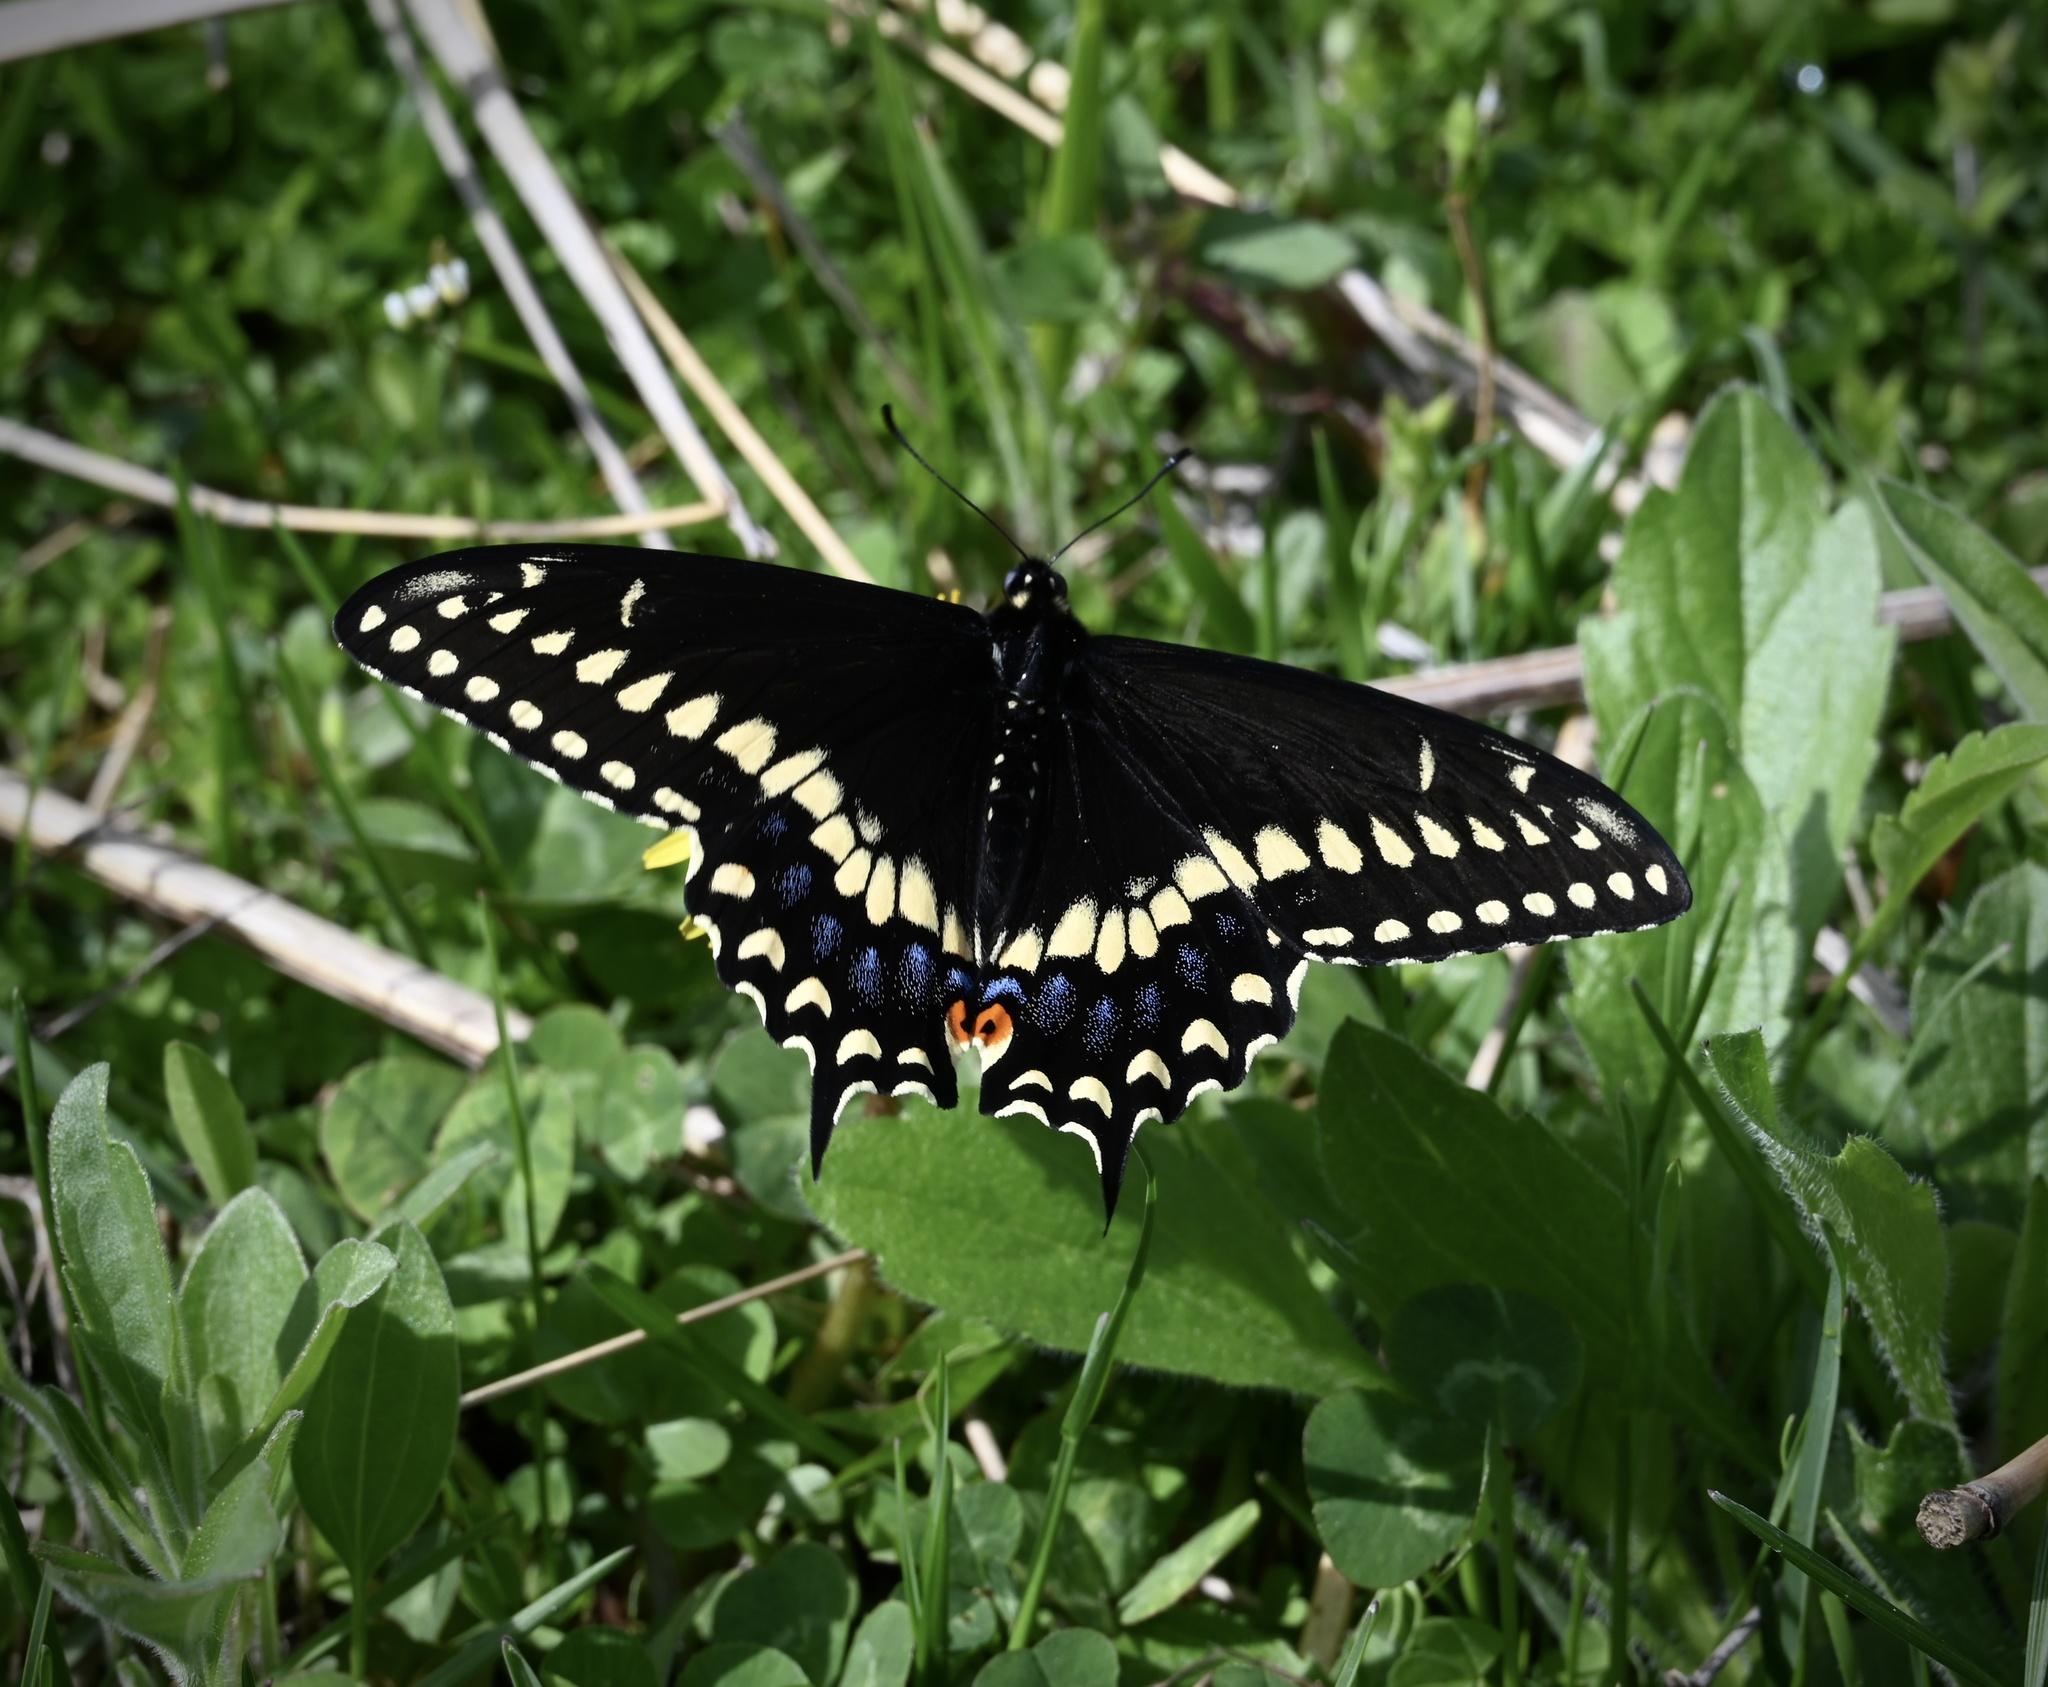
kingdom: Animalia
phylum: Arthropoda
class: Insecta
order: Lepidoptera
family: Papilionidae
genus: Papilio
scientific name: Papilio polyxenes
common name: Black swallowtail
